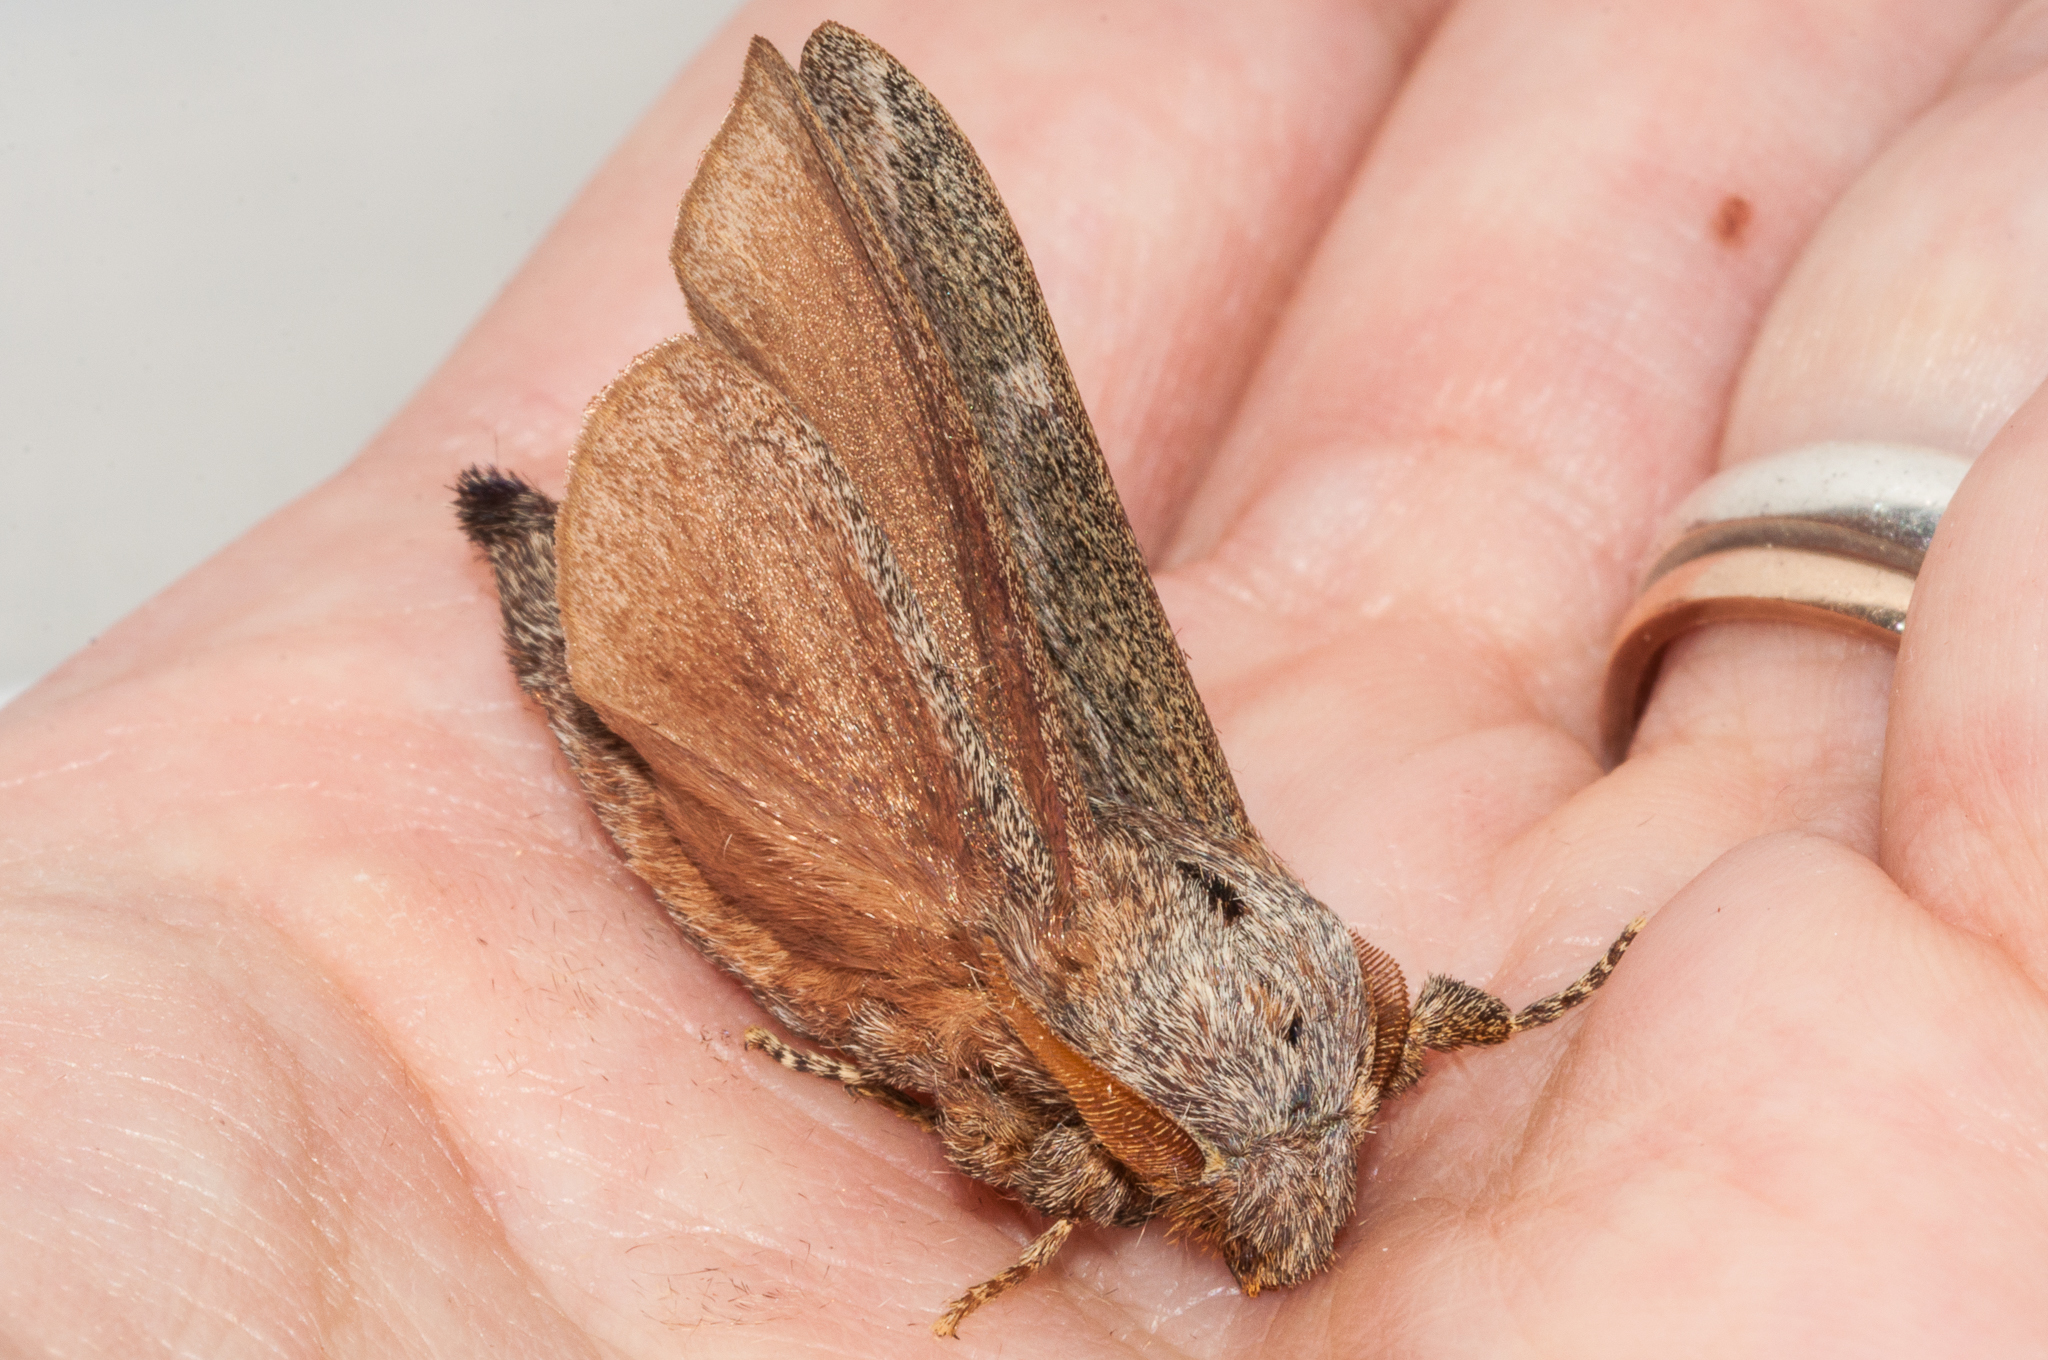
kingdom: Animalia
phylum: Arthropoda
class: Insecta
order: Lepidoptera
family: Lasiocampidae
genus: Eutricha
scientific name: Eutricha capensis
